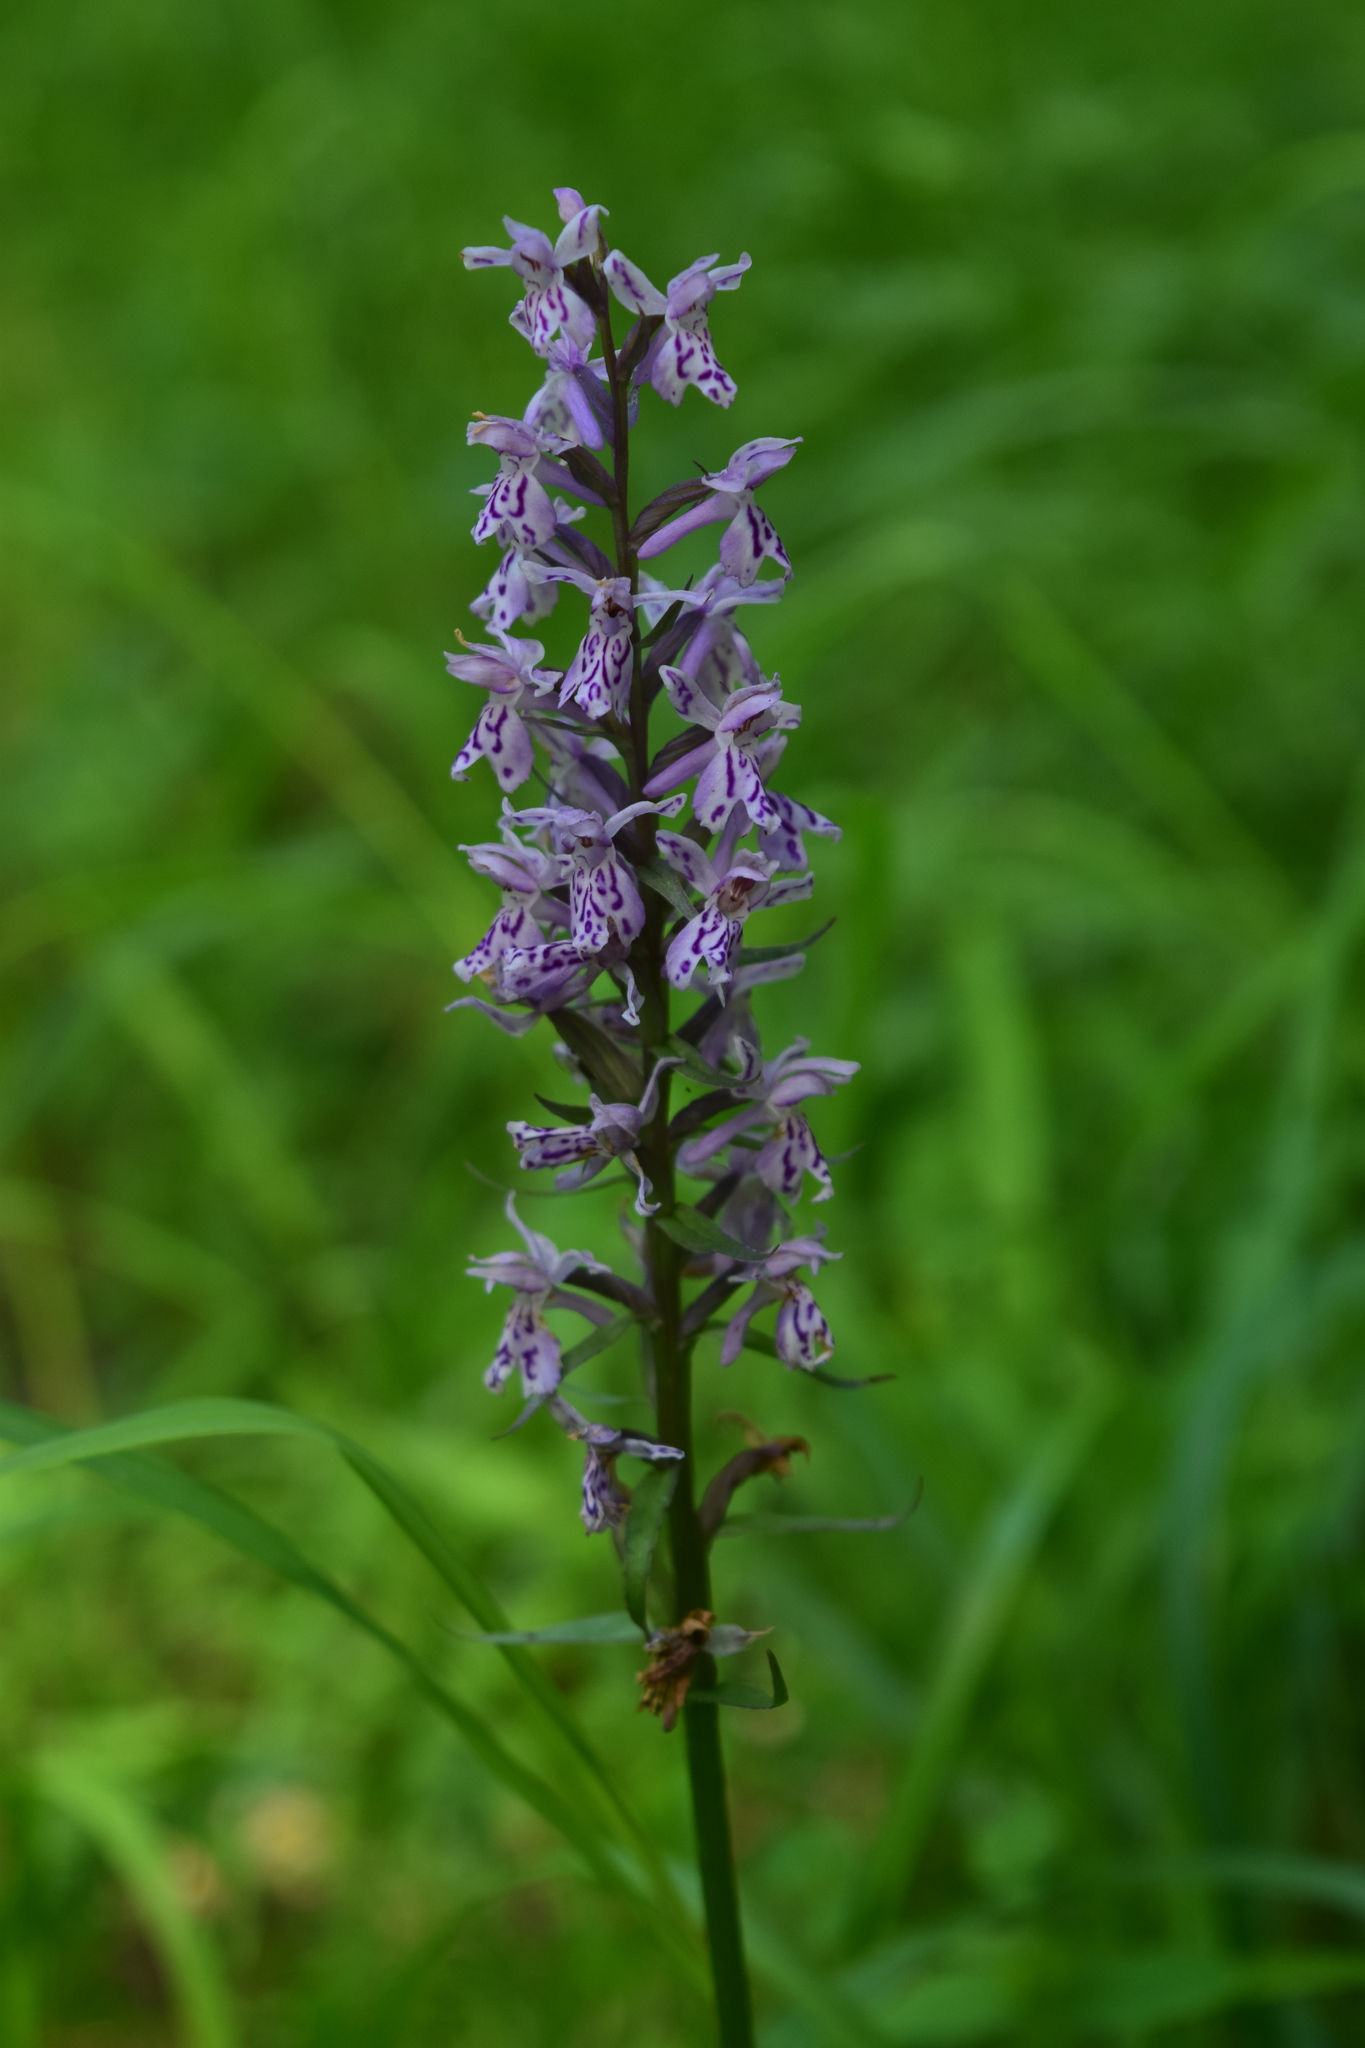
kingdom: Plantae
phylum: Tracheophyta
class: Liliopsida
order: Asparagales
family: Orchidaceae
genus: Dactylorhiza
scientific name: Dactylorhiza maculata
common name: Heath spotted-orchid
